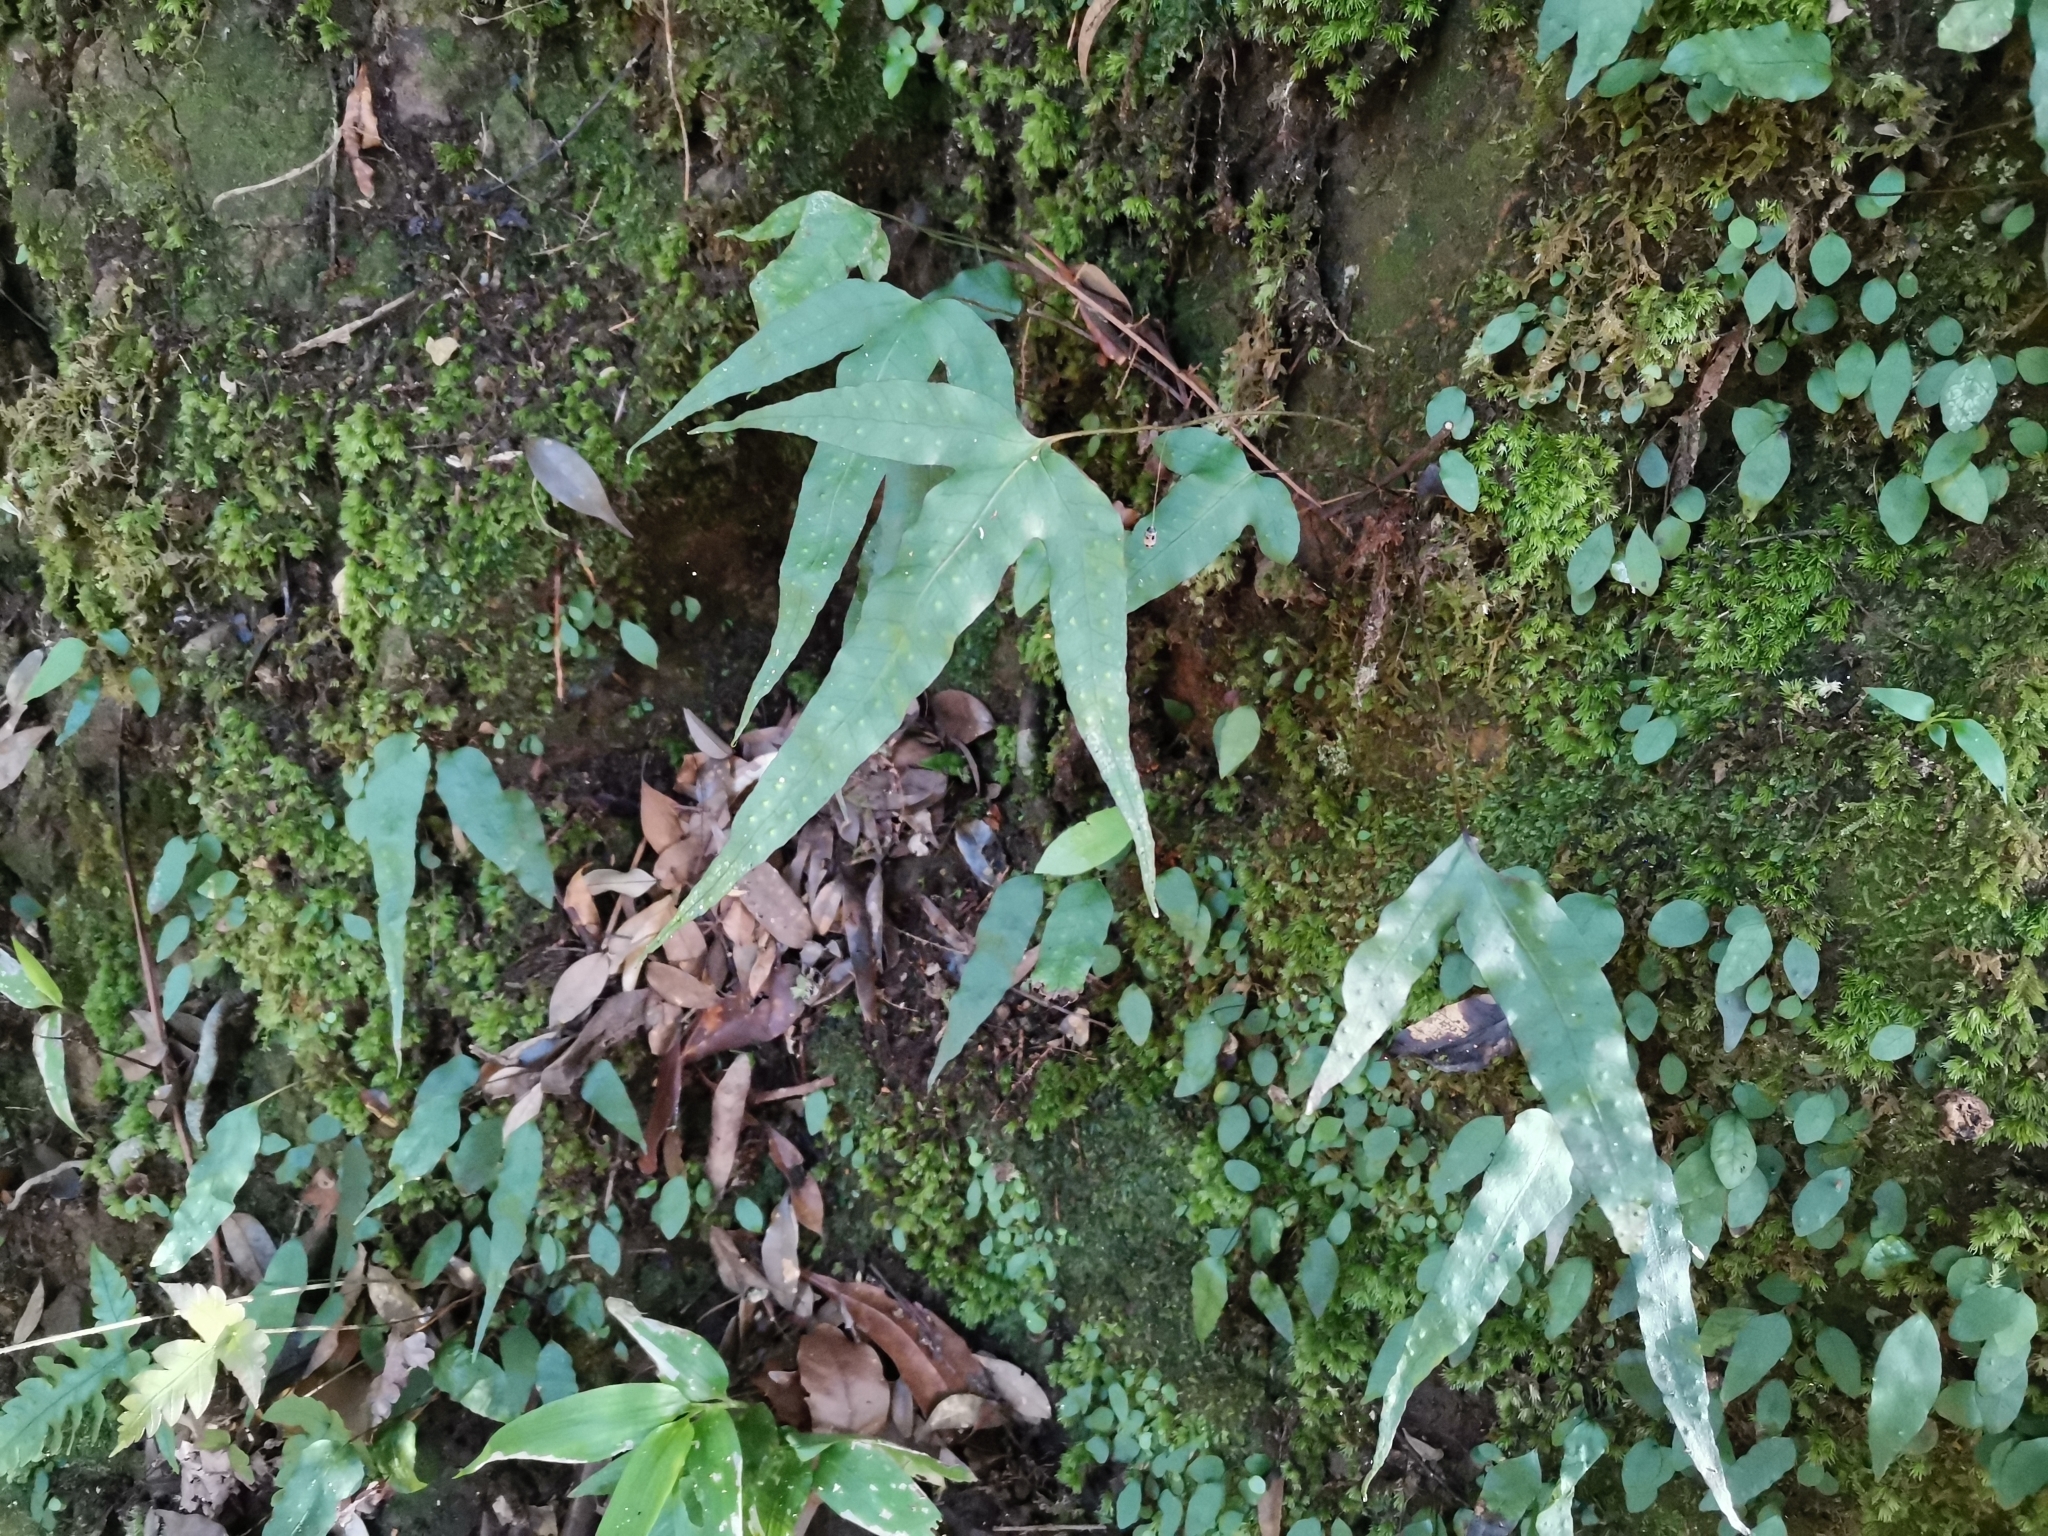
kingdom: Plantae
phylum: Tracheophyta
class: Polypodiopsida
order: Polypodiales
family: Polypodiaceae
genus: Selliguea
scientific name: Selliguea hastata
